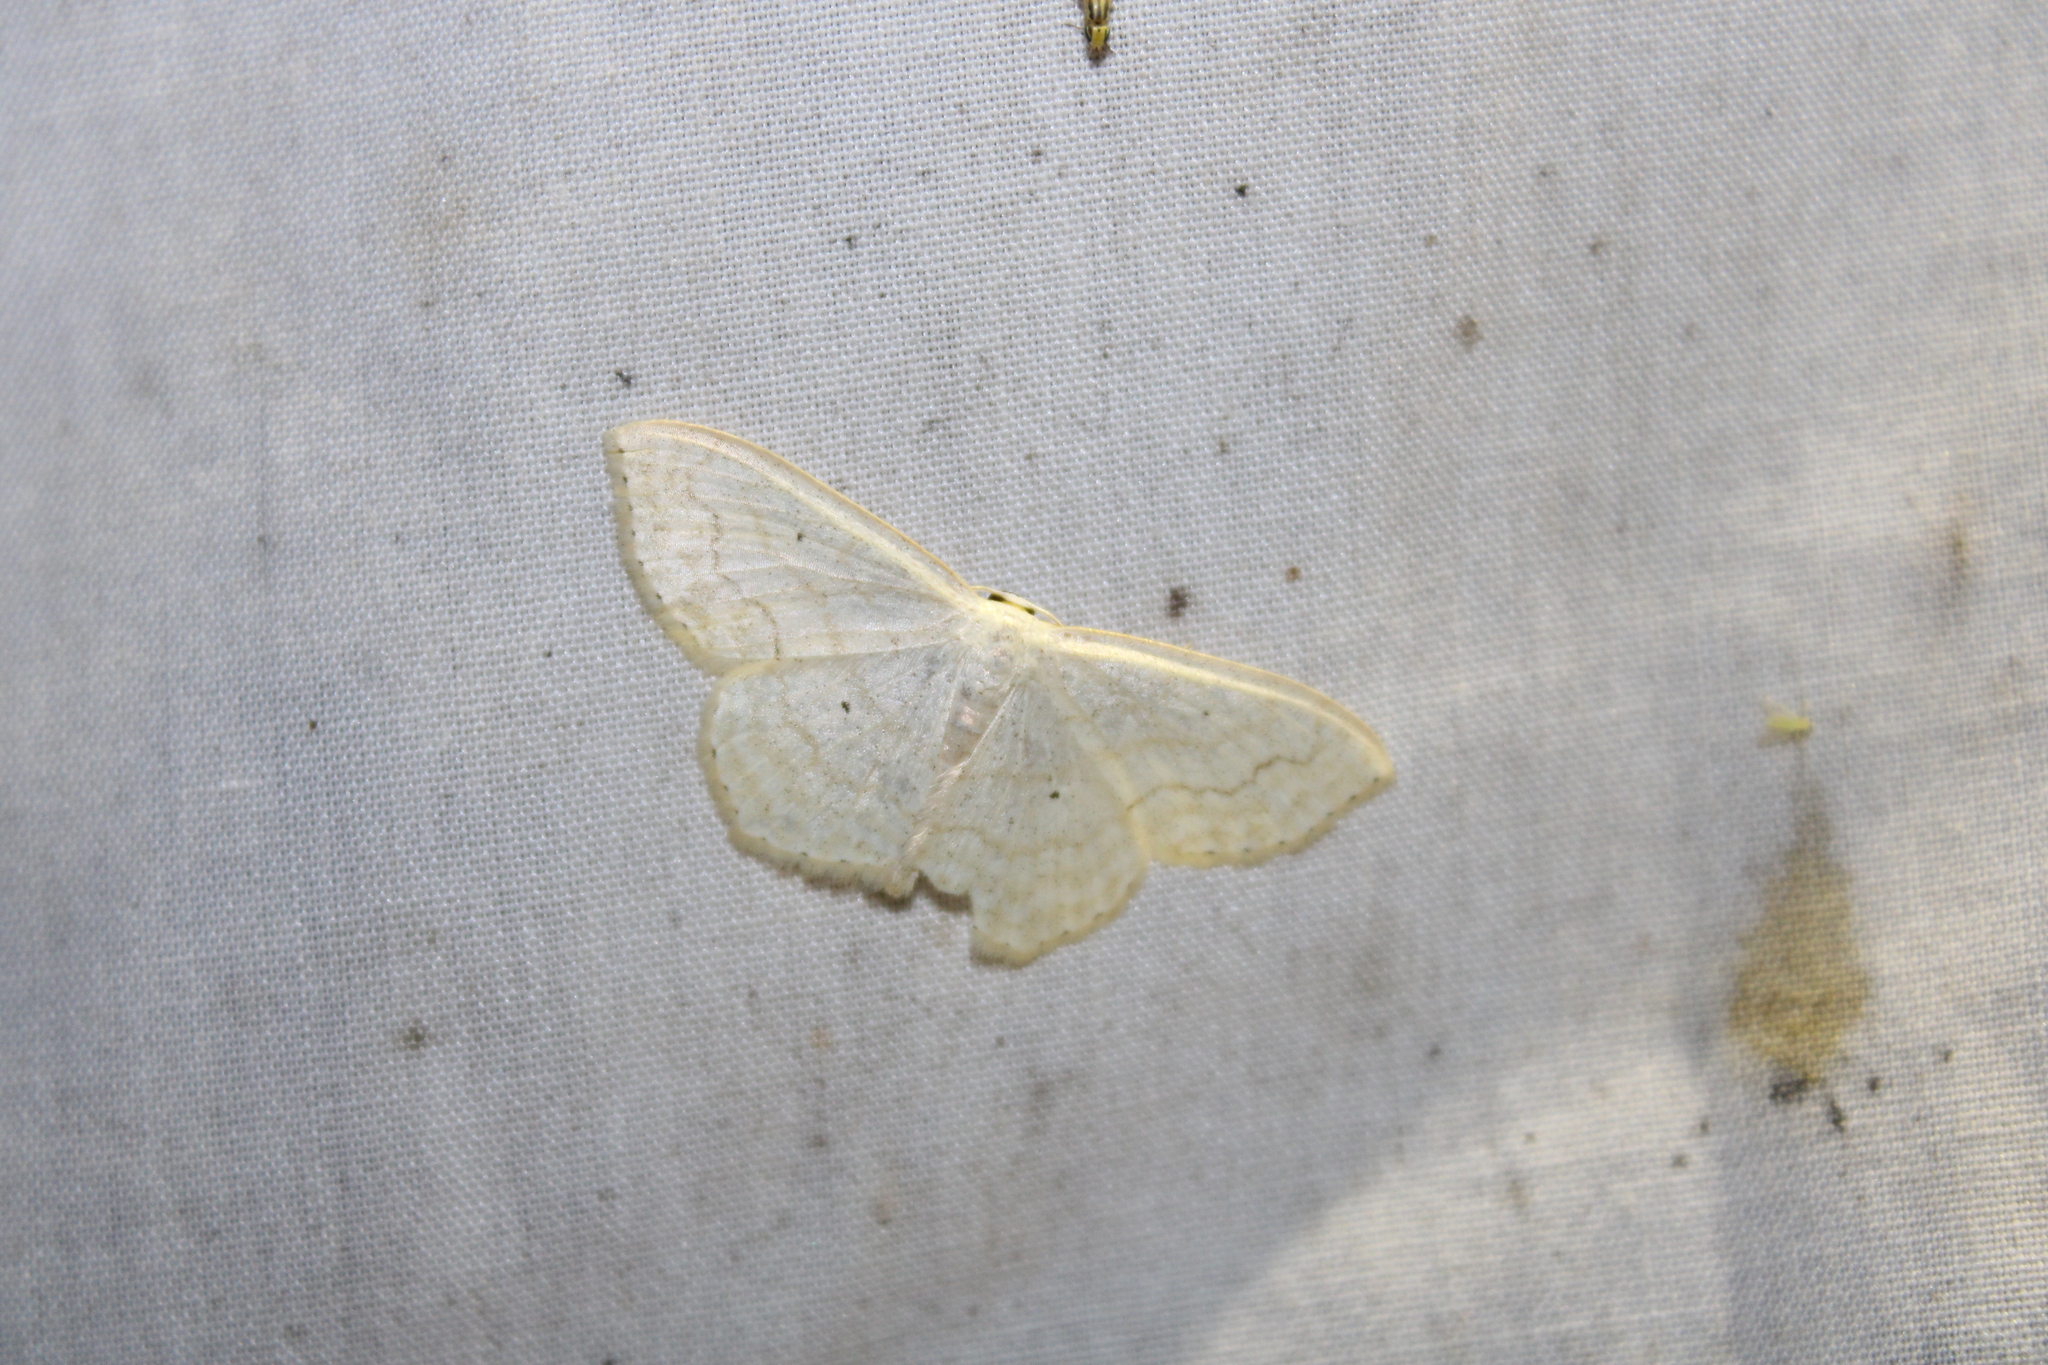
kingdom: Animalia
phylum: Arthropoda
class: Insecta
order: Lepidoptera
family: Geometridae
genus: Scopula
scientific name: Scopula limboundata
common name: Large lace border
